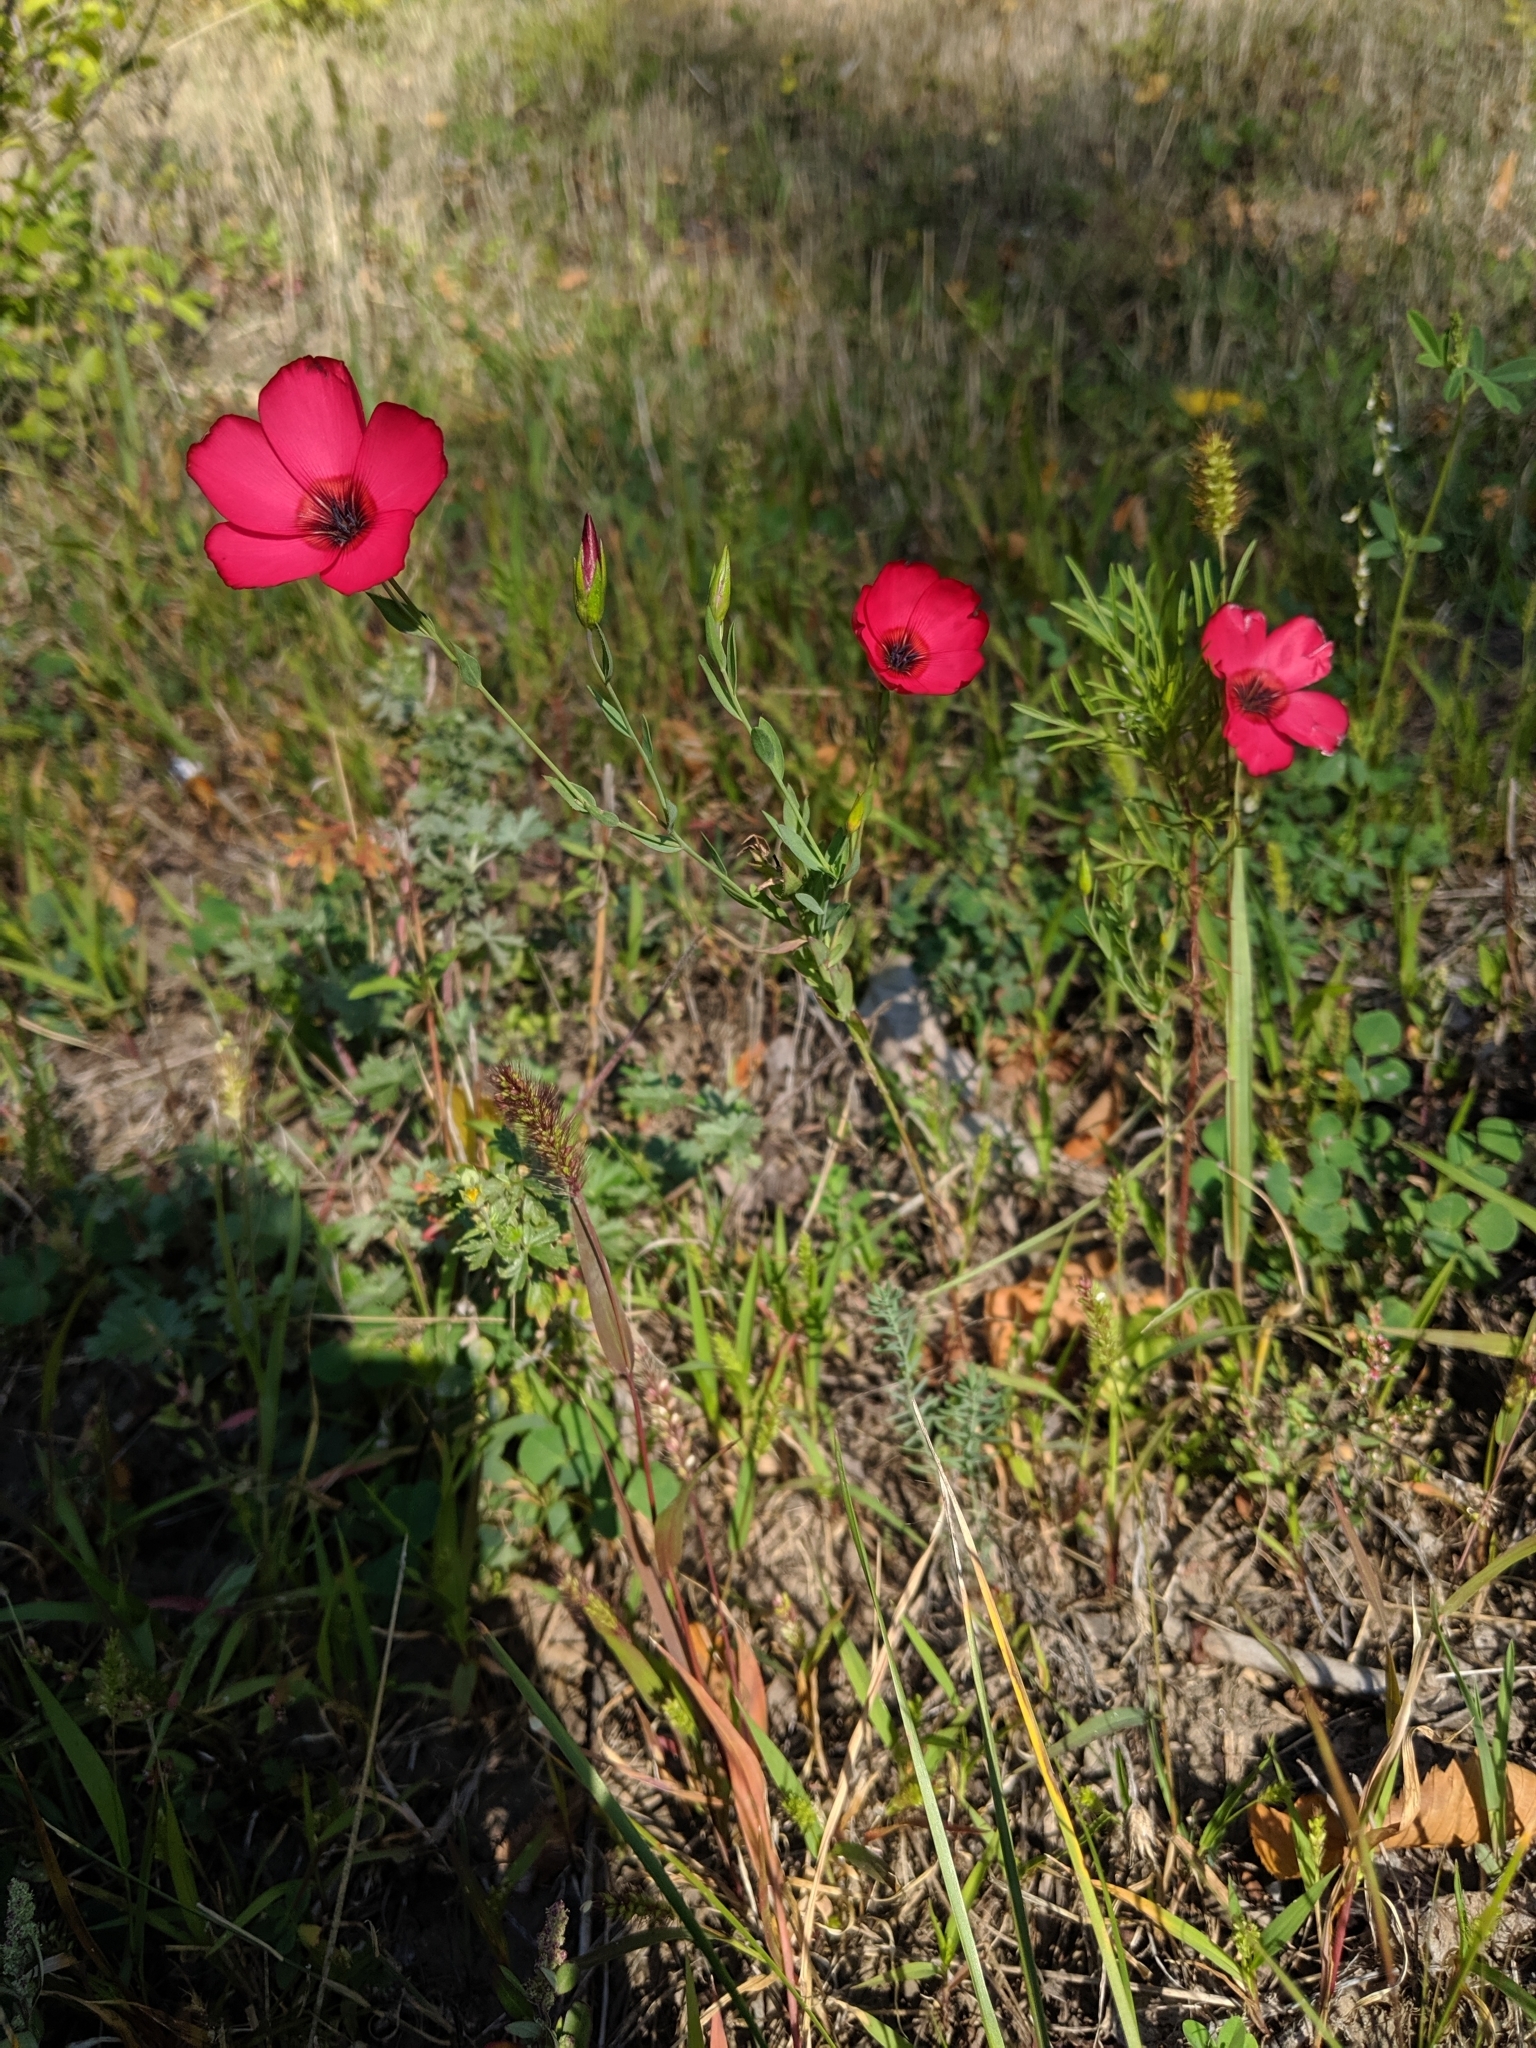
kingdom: Plantae
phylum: Tracheophyta
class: Magnoliopsida
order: Malpighiales
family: Linaceae
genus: Linum
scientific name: Linum grandiflorum
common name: Crimson flax
